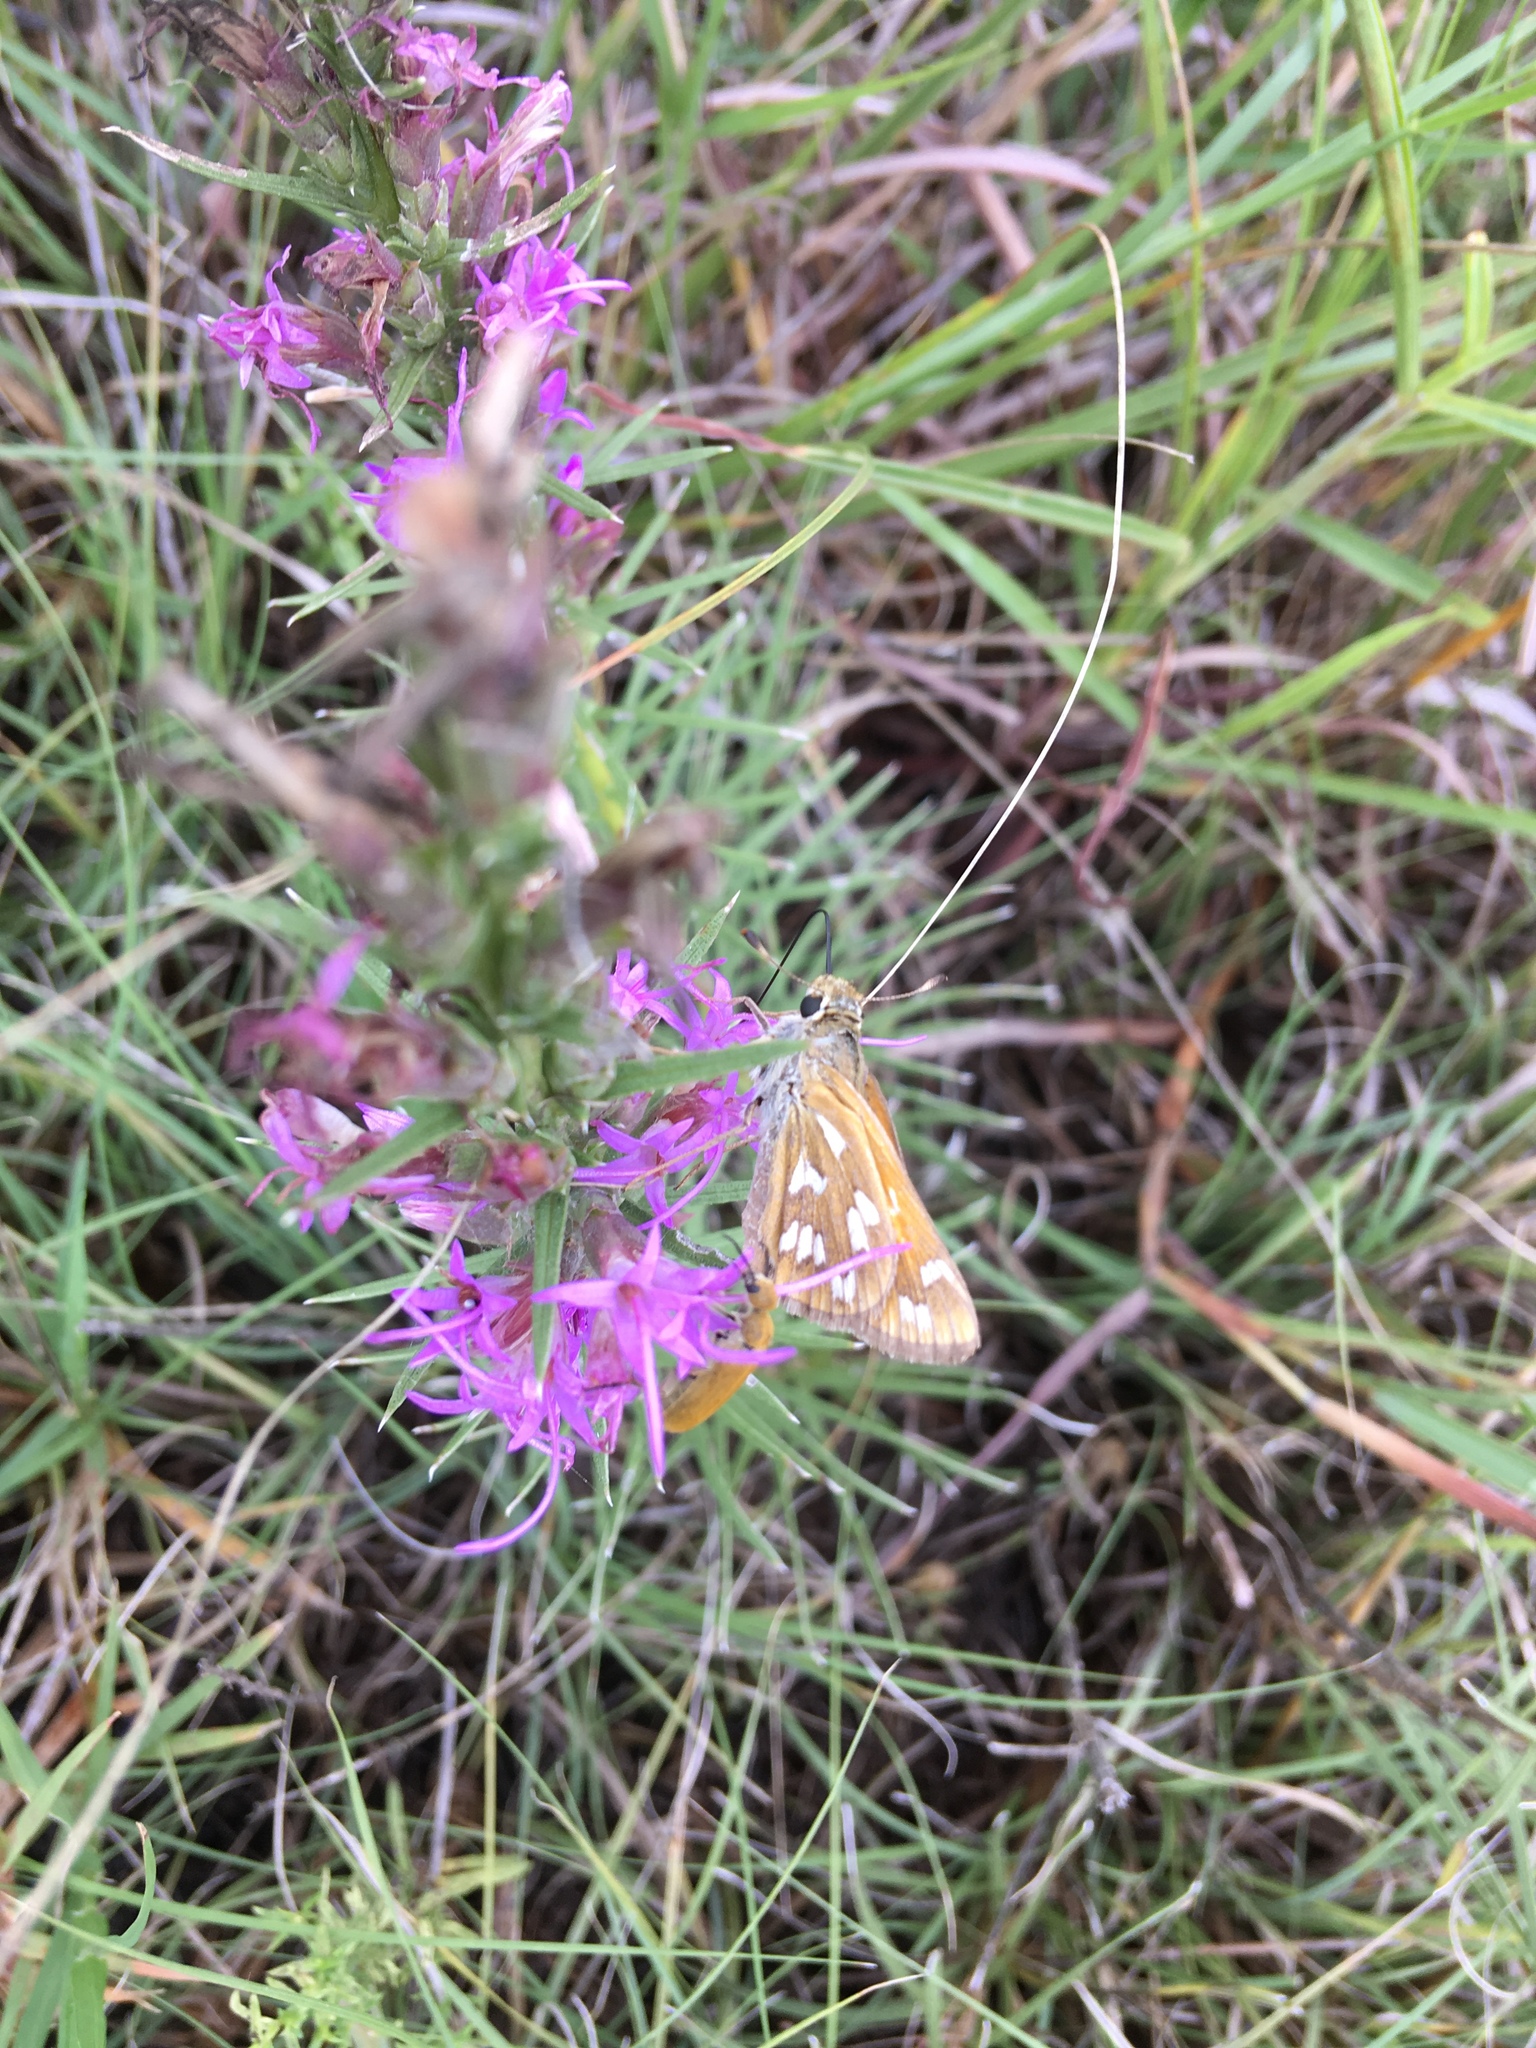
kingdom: Animalia
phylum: Arthropoda
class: Insecta
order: Lepidoptera
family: Hesperiidae
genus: Hesperia
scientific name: Hesperia viridis
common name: Green skipper
